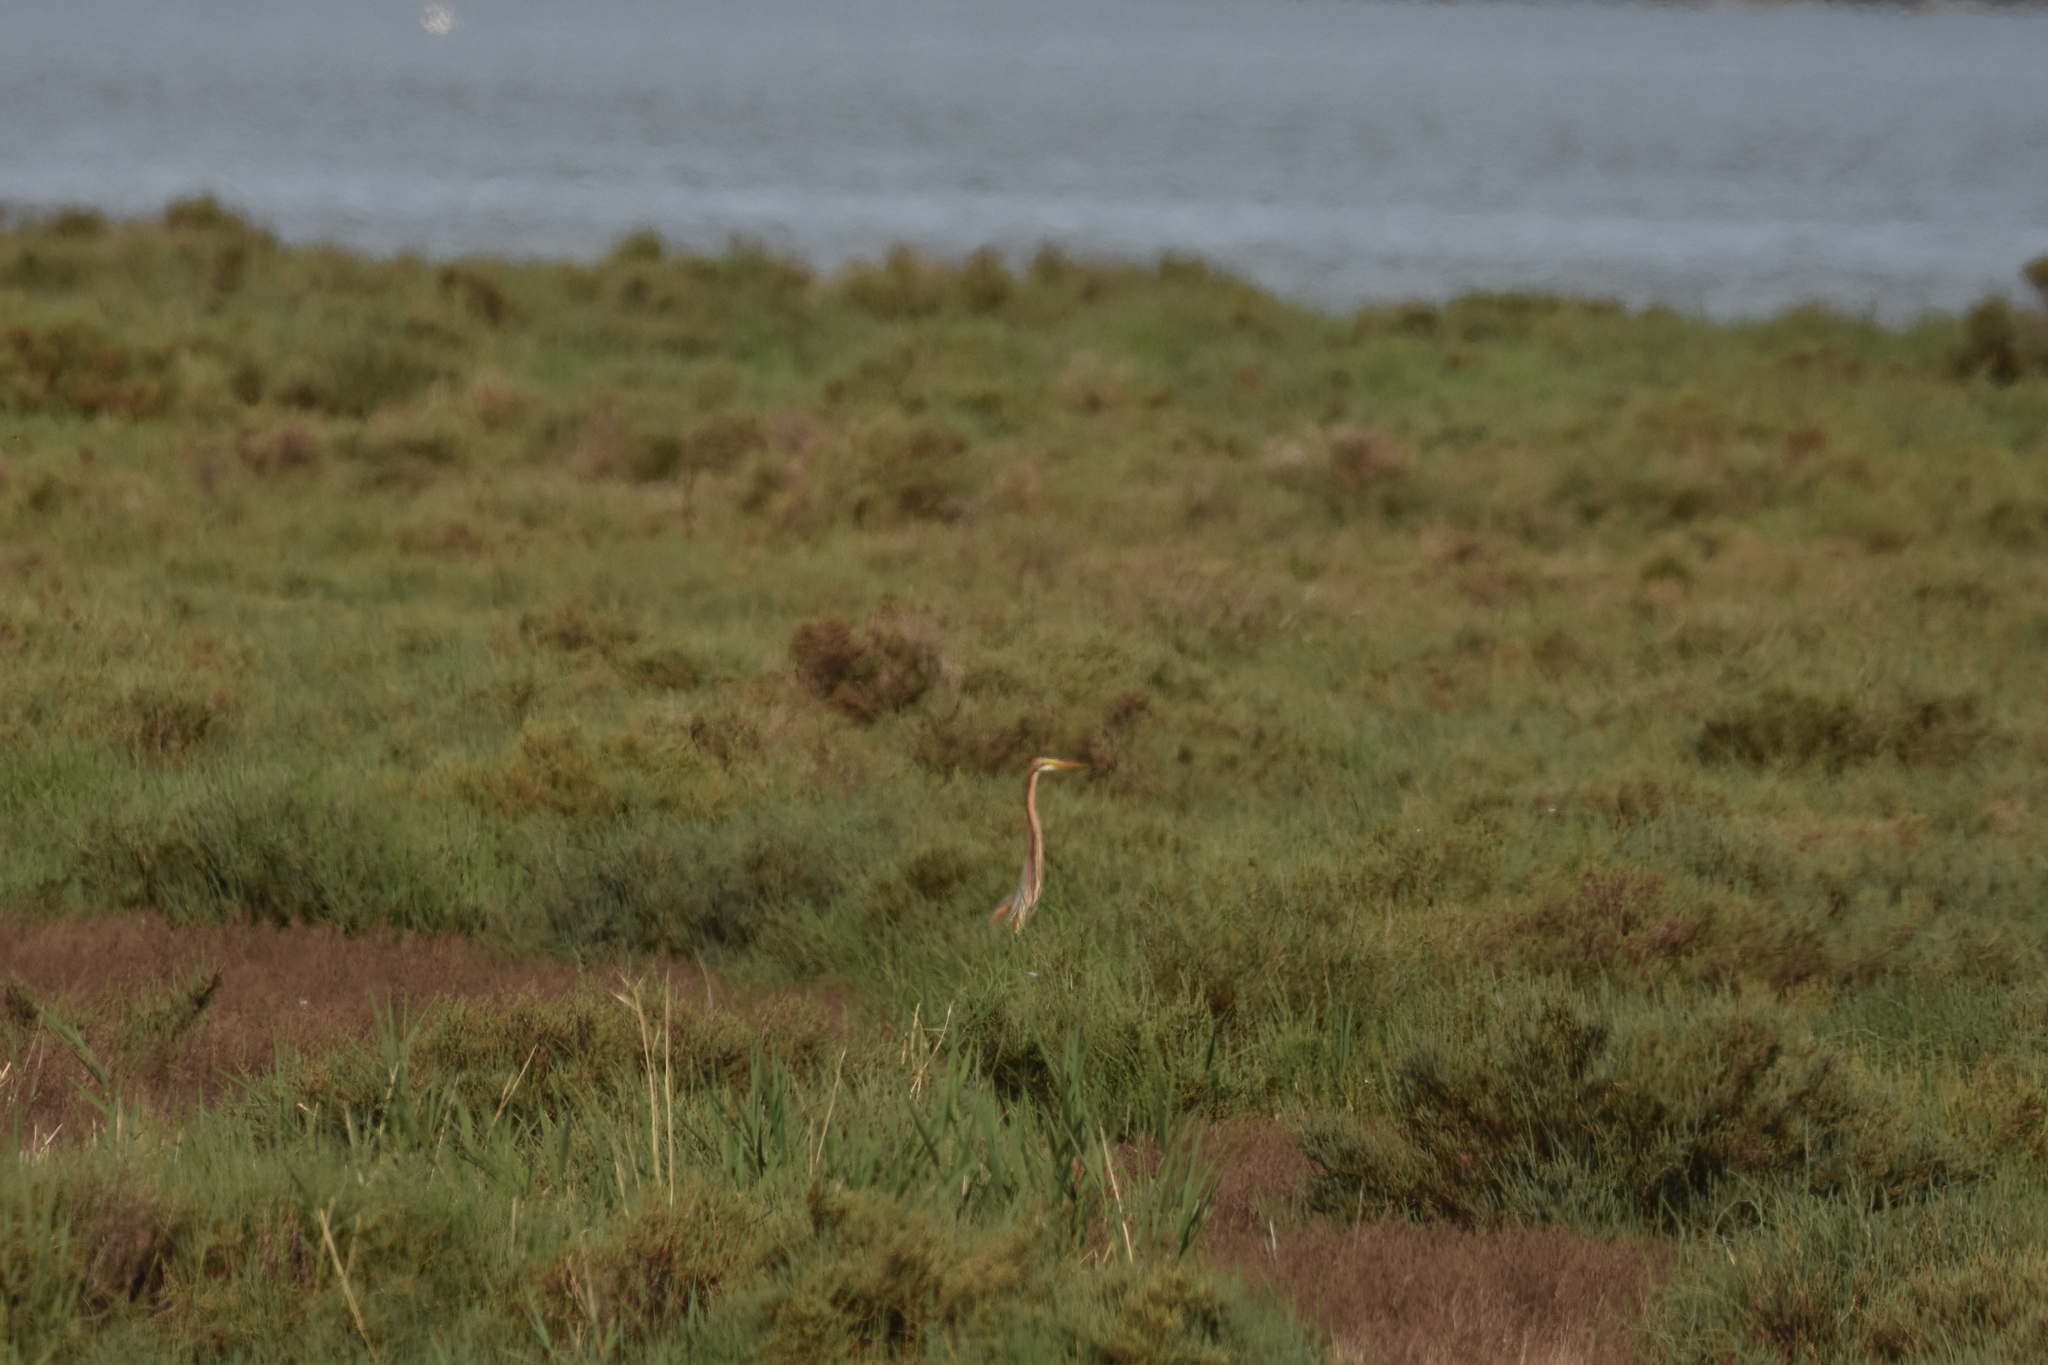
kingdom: Animalia
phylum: Chordata
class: Aves
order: Pelecaniformes
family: Ardeidae
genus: Ardea
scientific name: Ardea purpurea
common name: Purple heron
